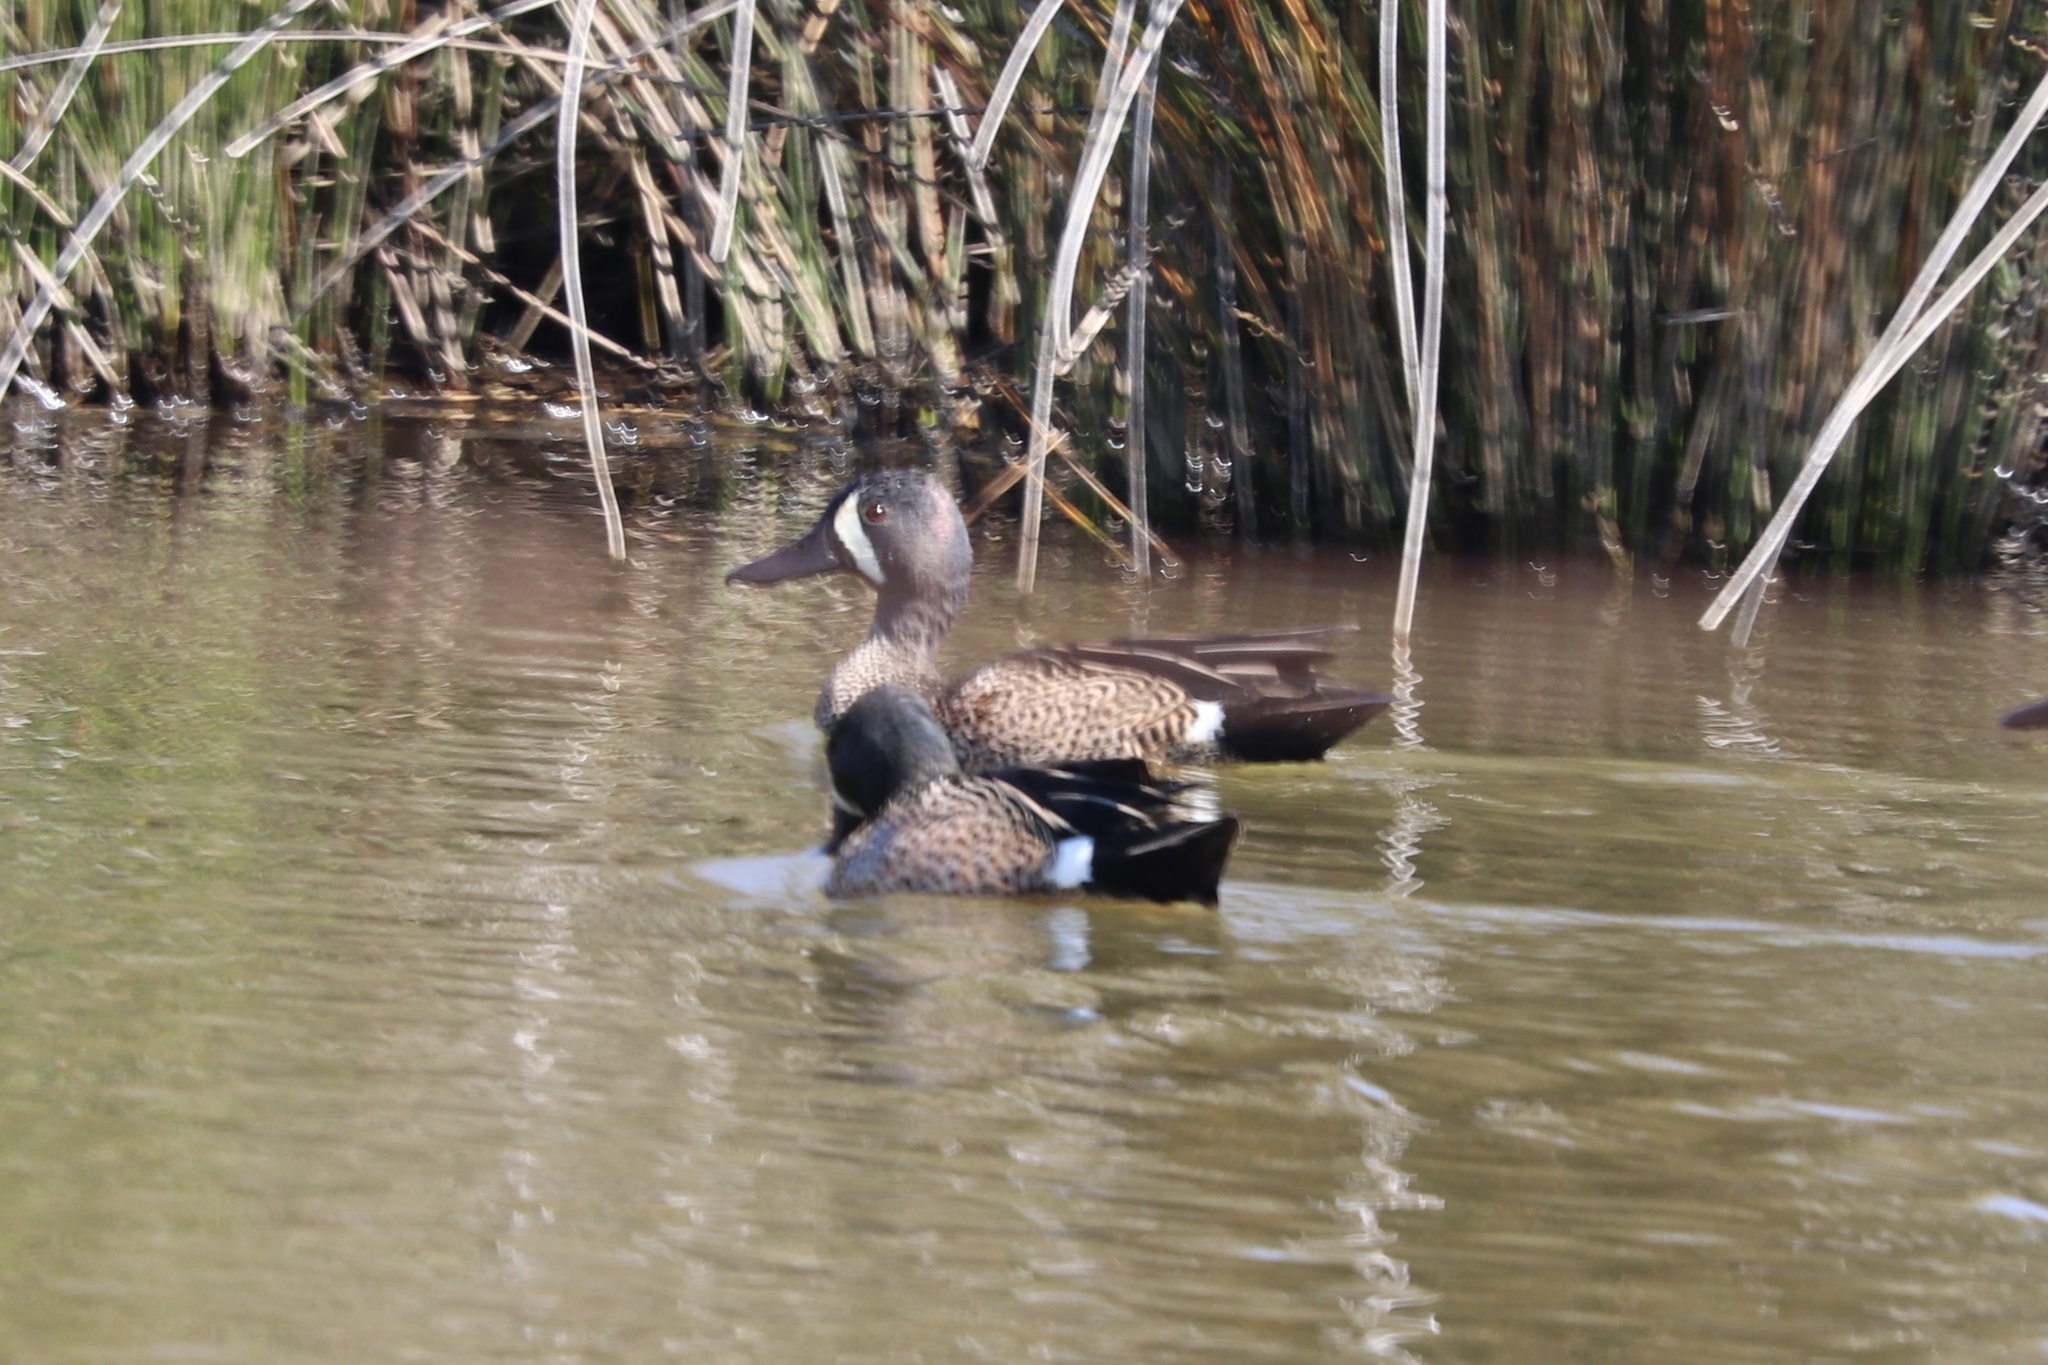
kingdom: Animalia
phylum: Chordata
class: Aves
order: Anseriformes
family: Anatidae
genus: Spatula
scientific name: Spatula discors
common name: Blue-winged teal
